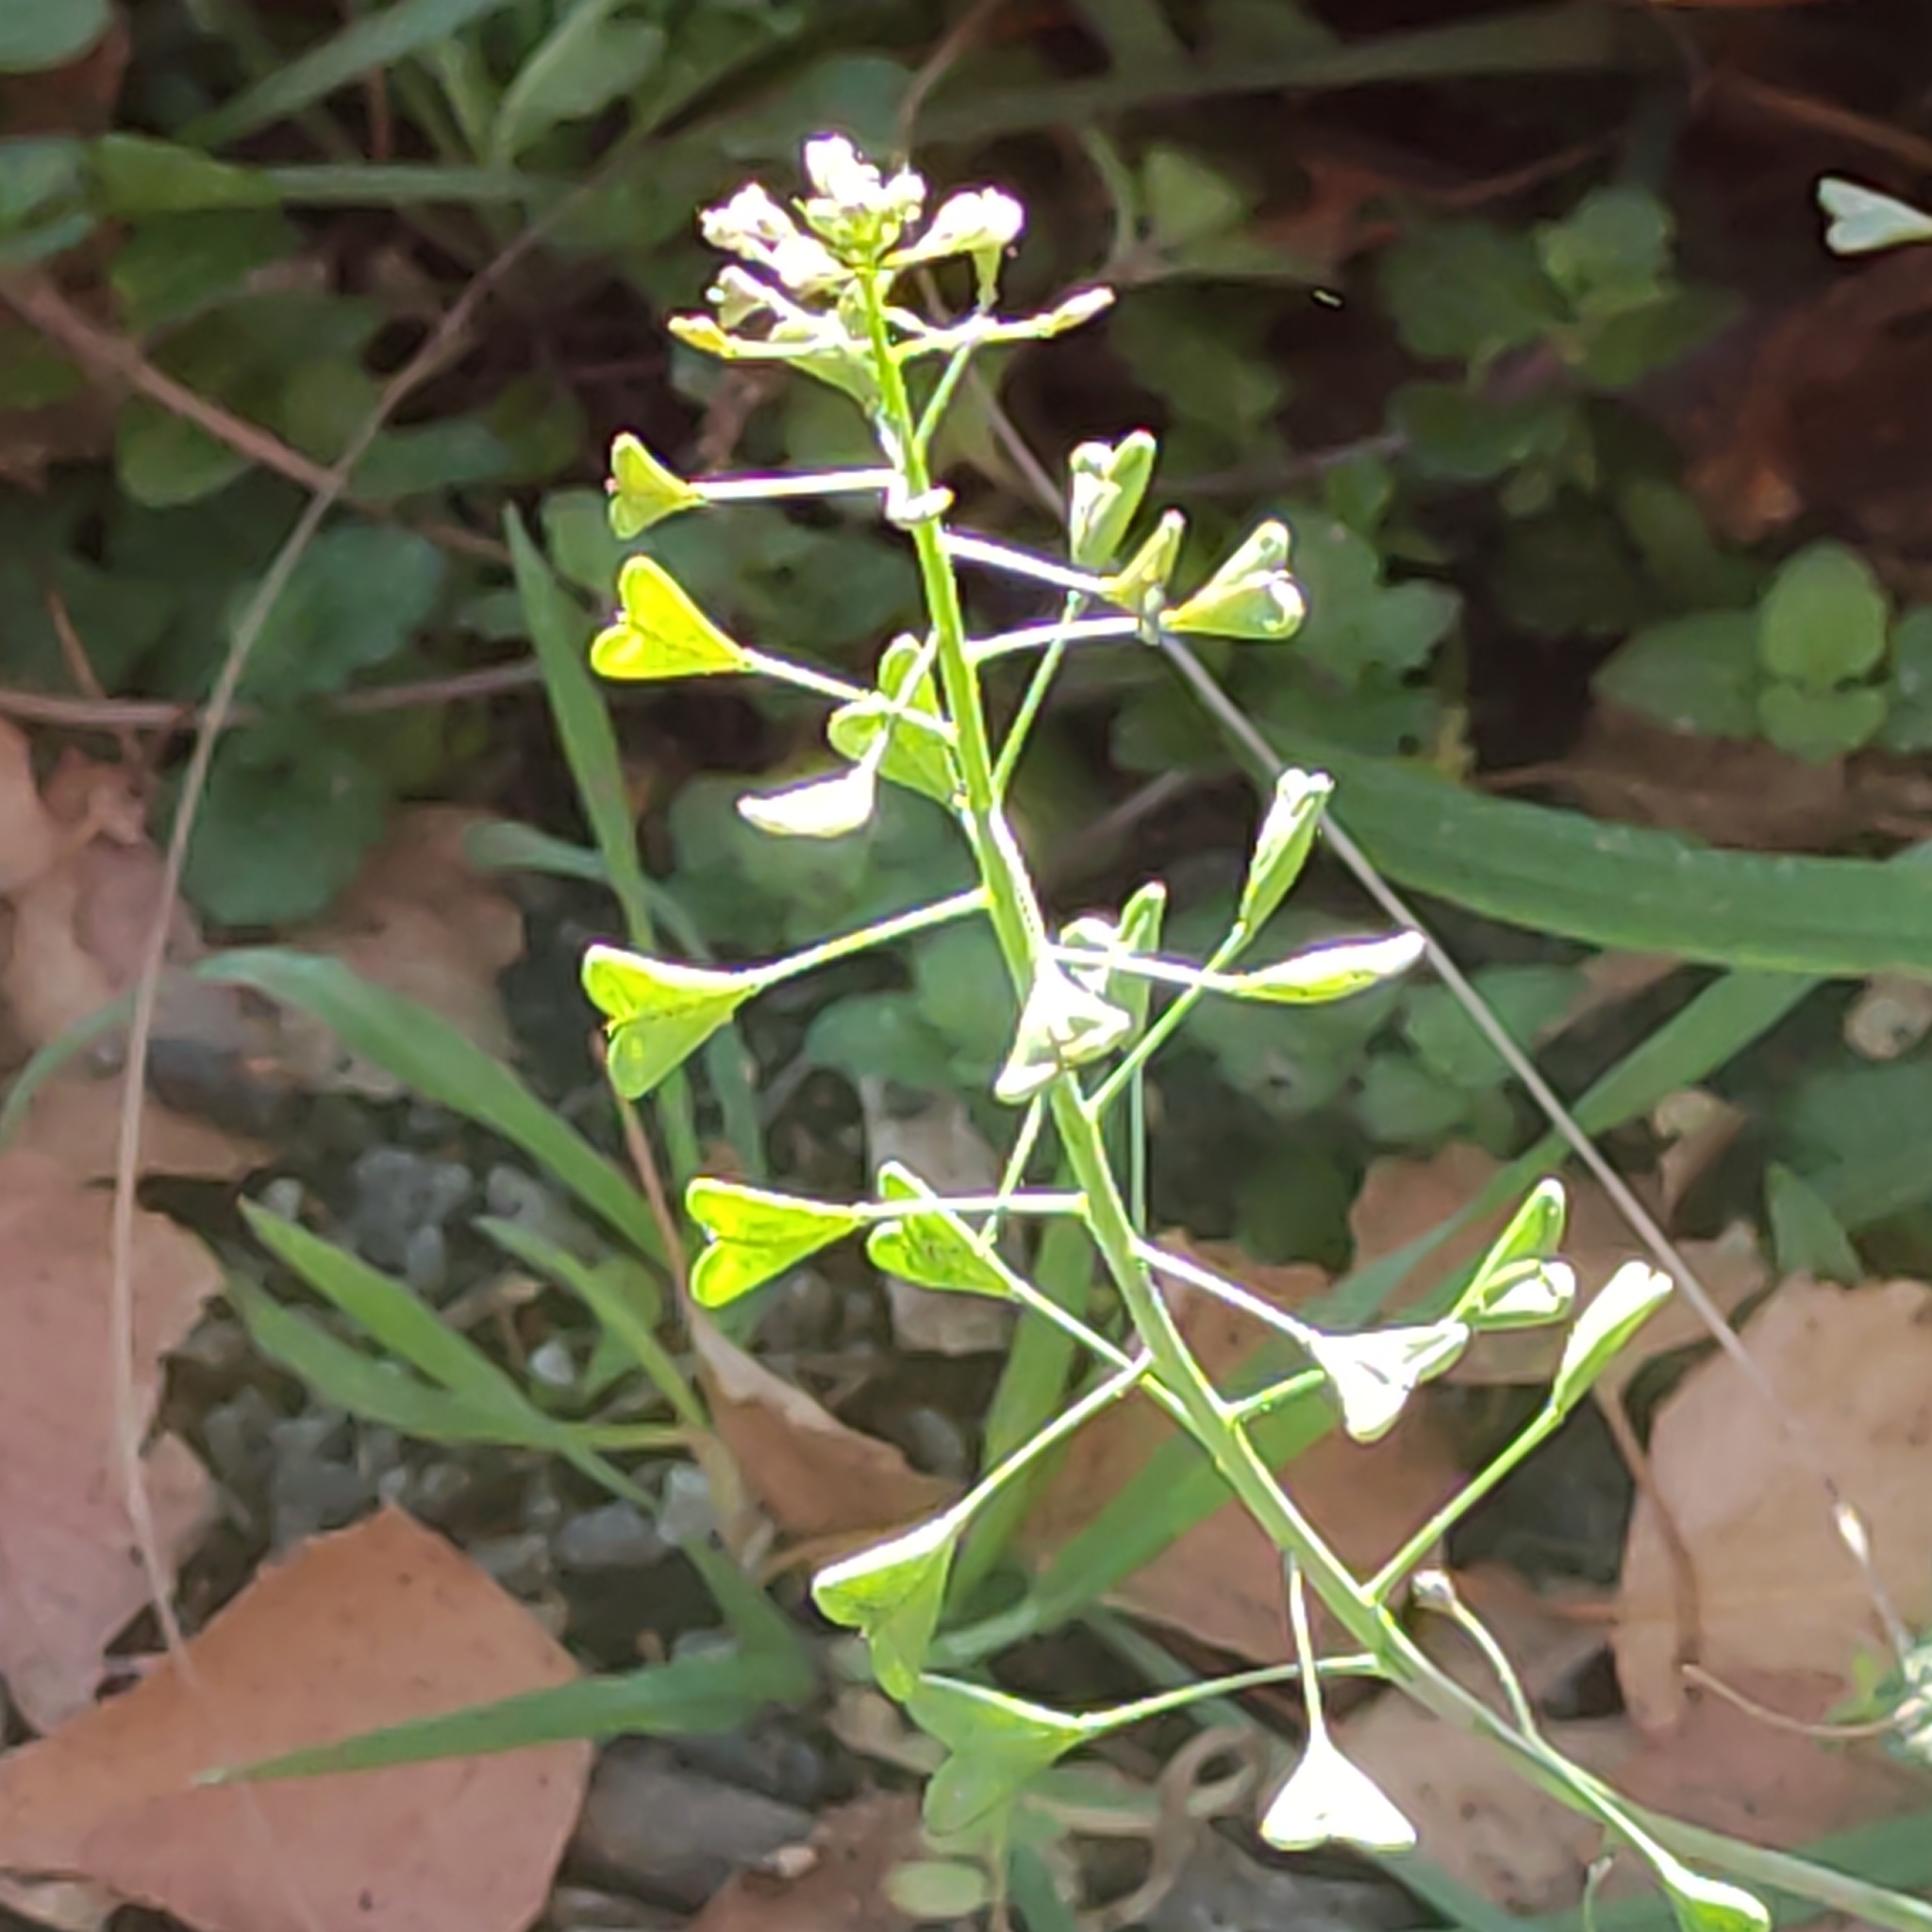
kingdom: Plantae
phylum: Tracheophyta
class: Magnoliopsida
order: Brassicales
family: Brassicaceae
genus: Capsella
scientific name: Capsella bursa-pastoris
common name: Shepherd's purse
